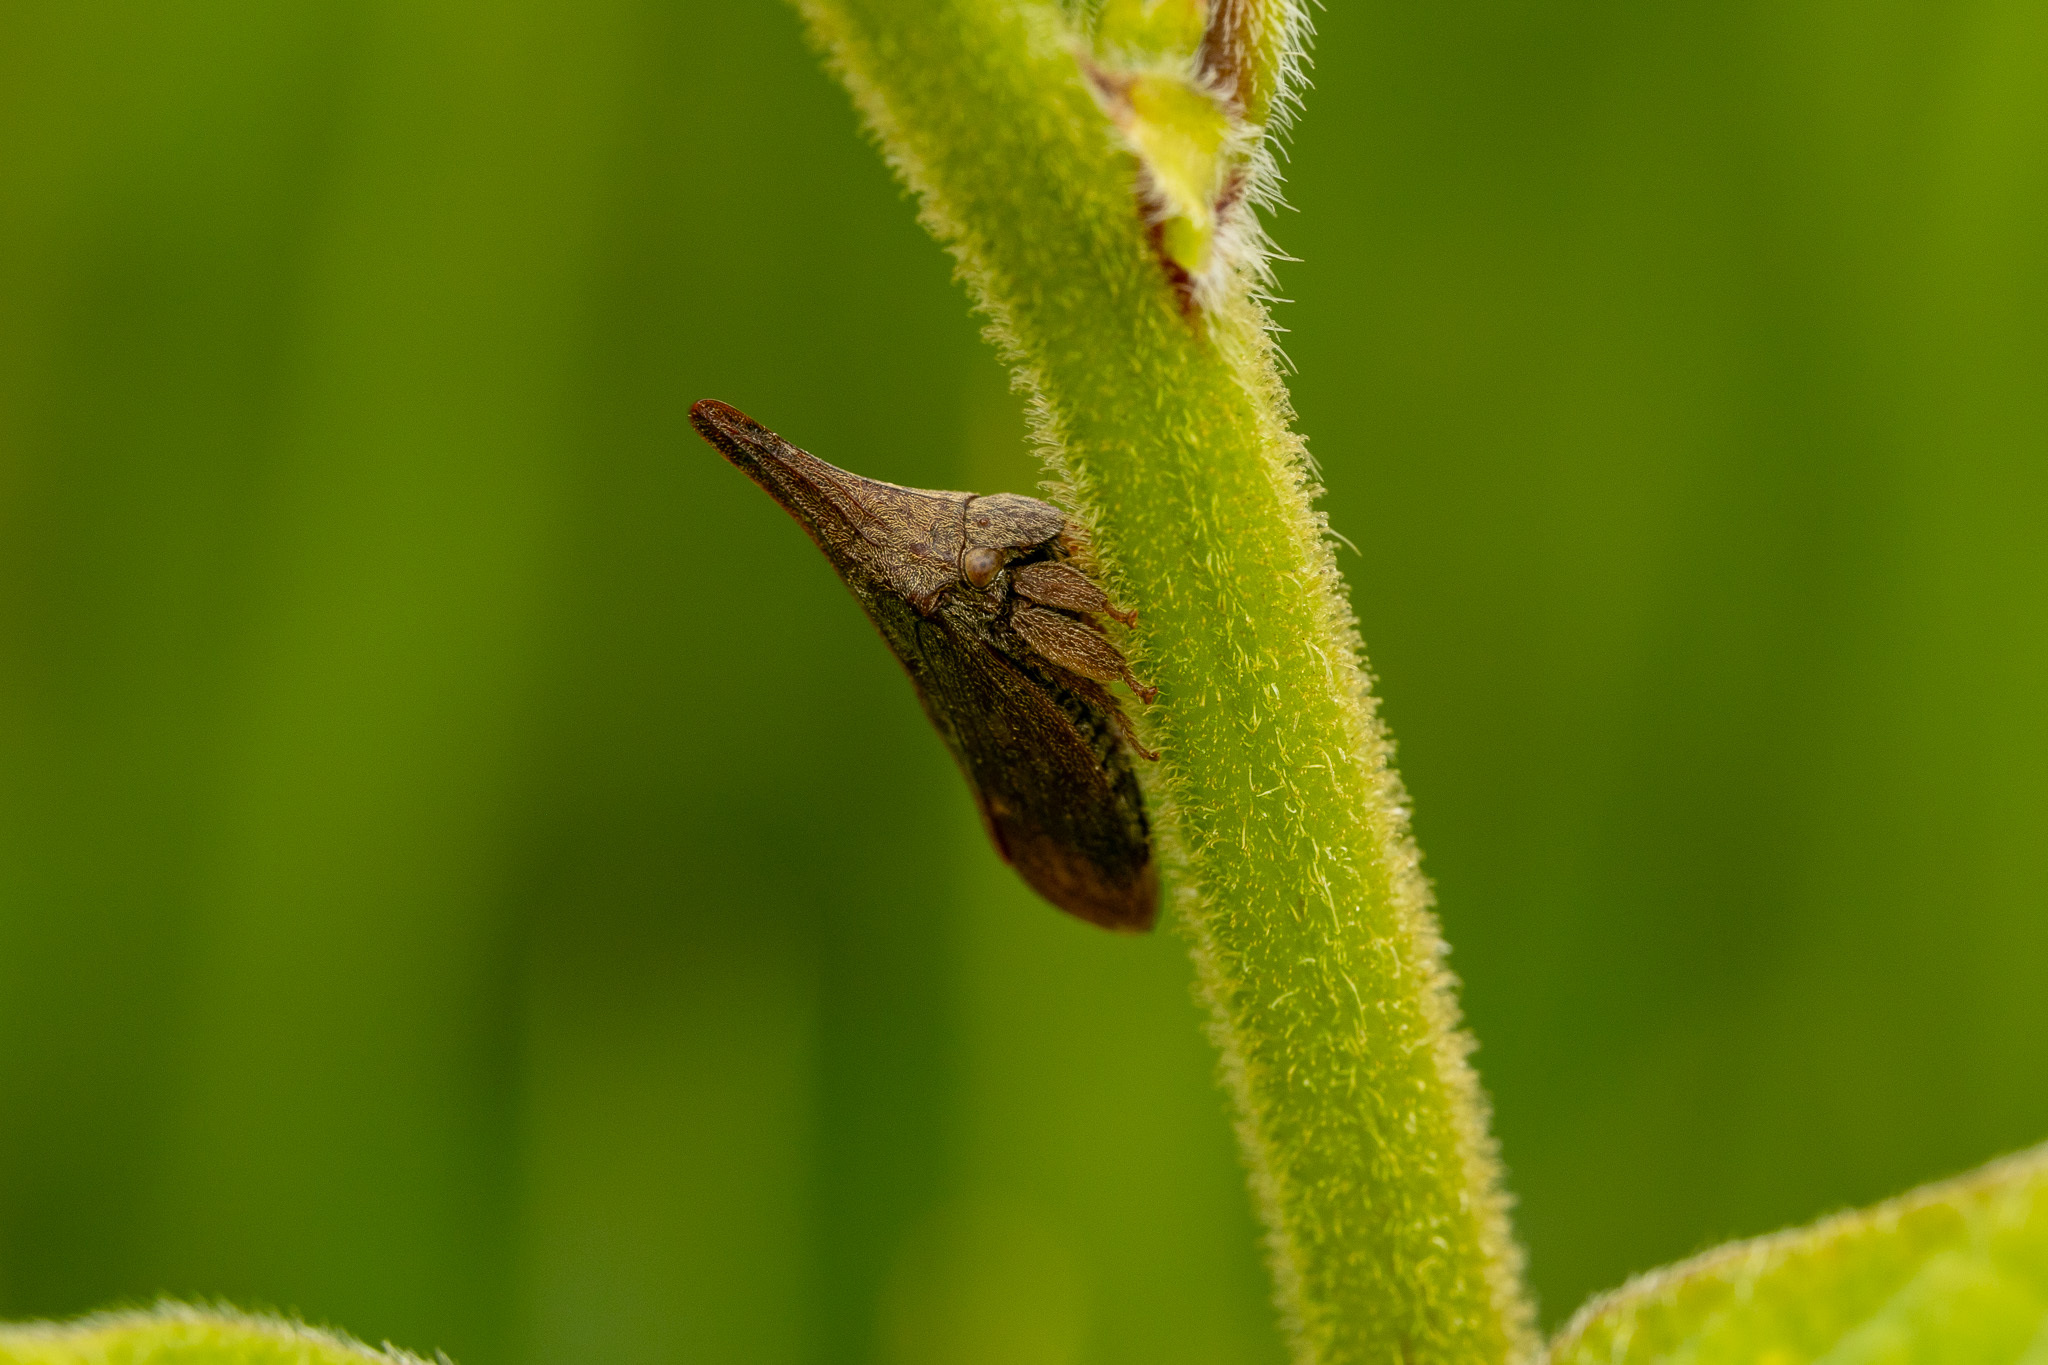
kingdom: Animalia
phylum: Arthropoda
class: Insecta
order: Hemiptera
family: Membracidae
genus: Aconophora
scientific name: Aconophora compressa
